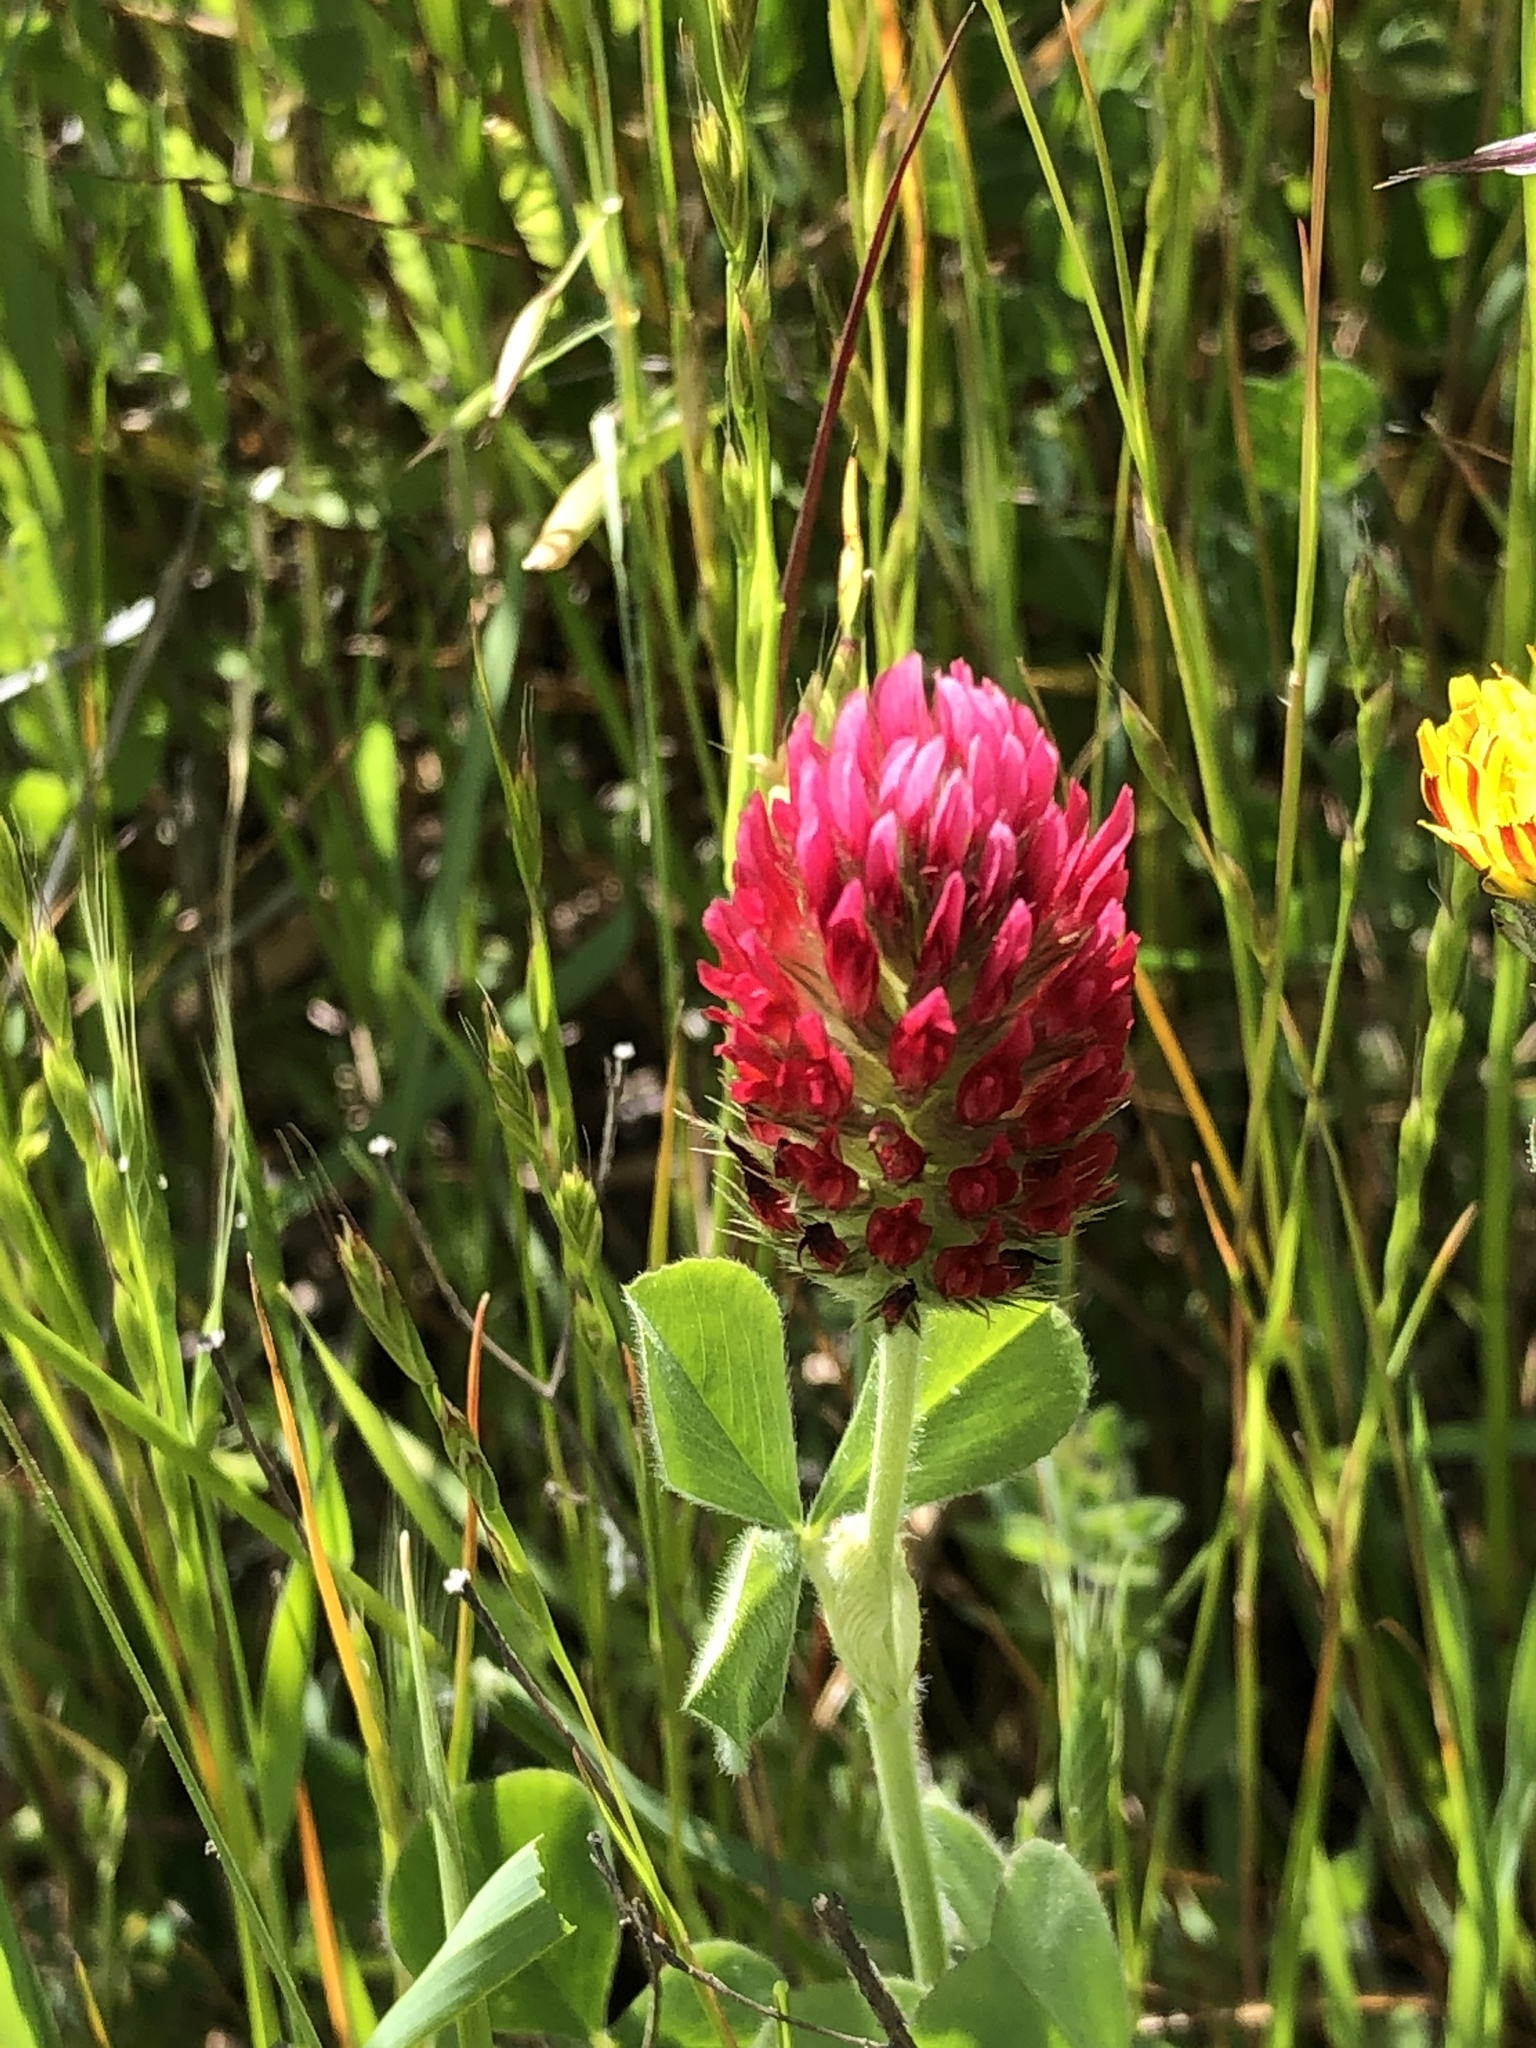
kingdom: Plantae
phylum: Tracheophyta
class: Magnoliopsida
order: Fabales
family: Fabaceae
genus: Trifolium
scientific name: Trifolium incarnatum
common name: Crimson clover
